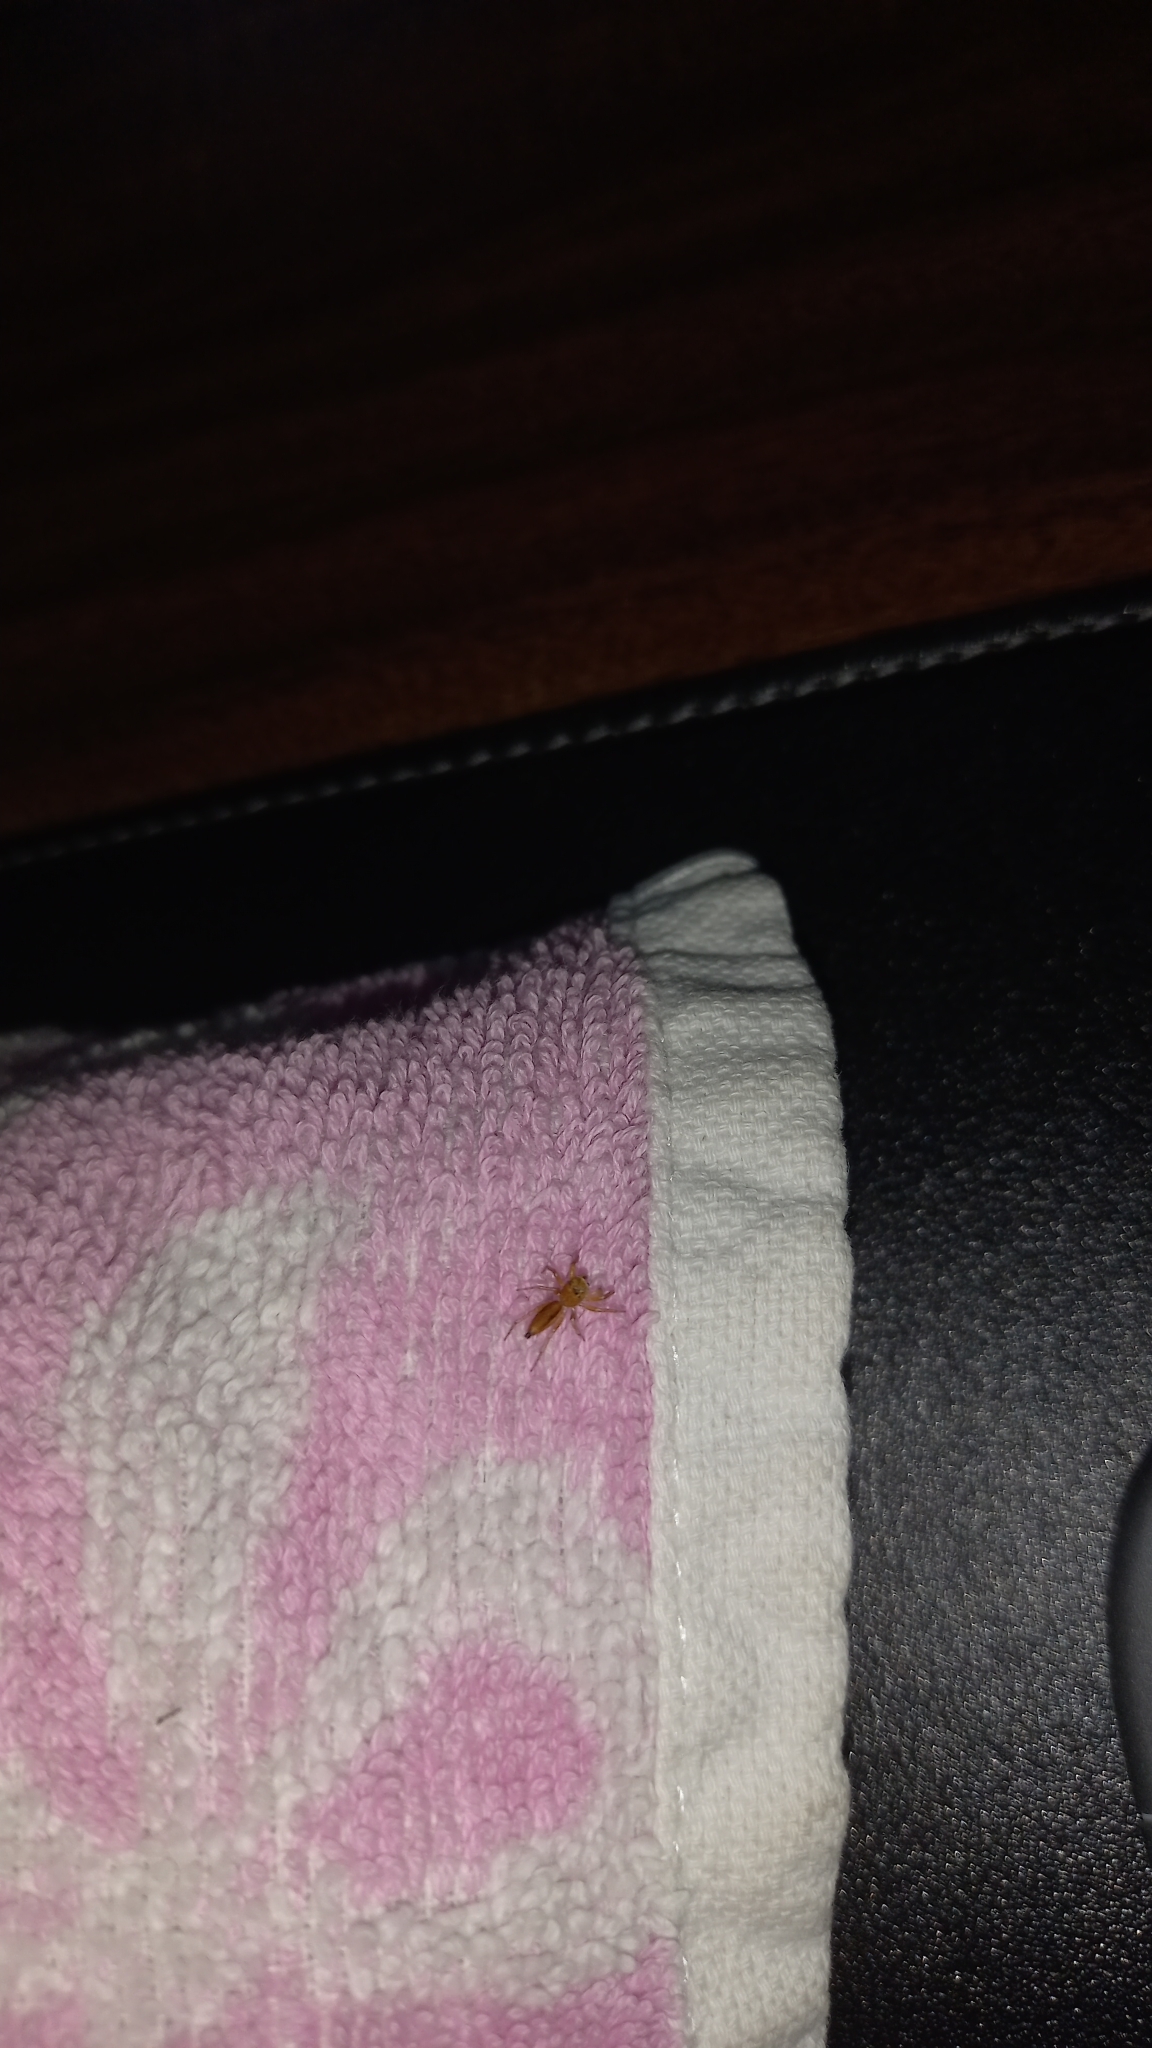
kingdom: Animalia
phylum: Arthropoda
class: Arachnida
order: Araneae
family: Salticidae
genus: Cosmophasis
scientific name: Cosmophasis lami
